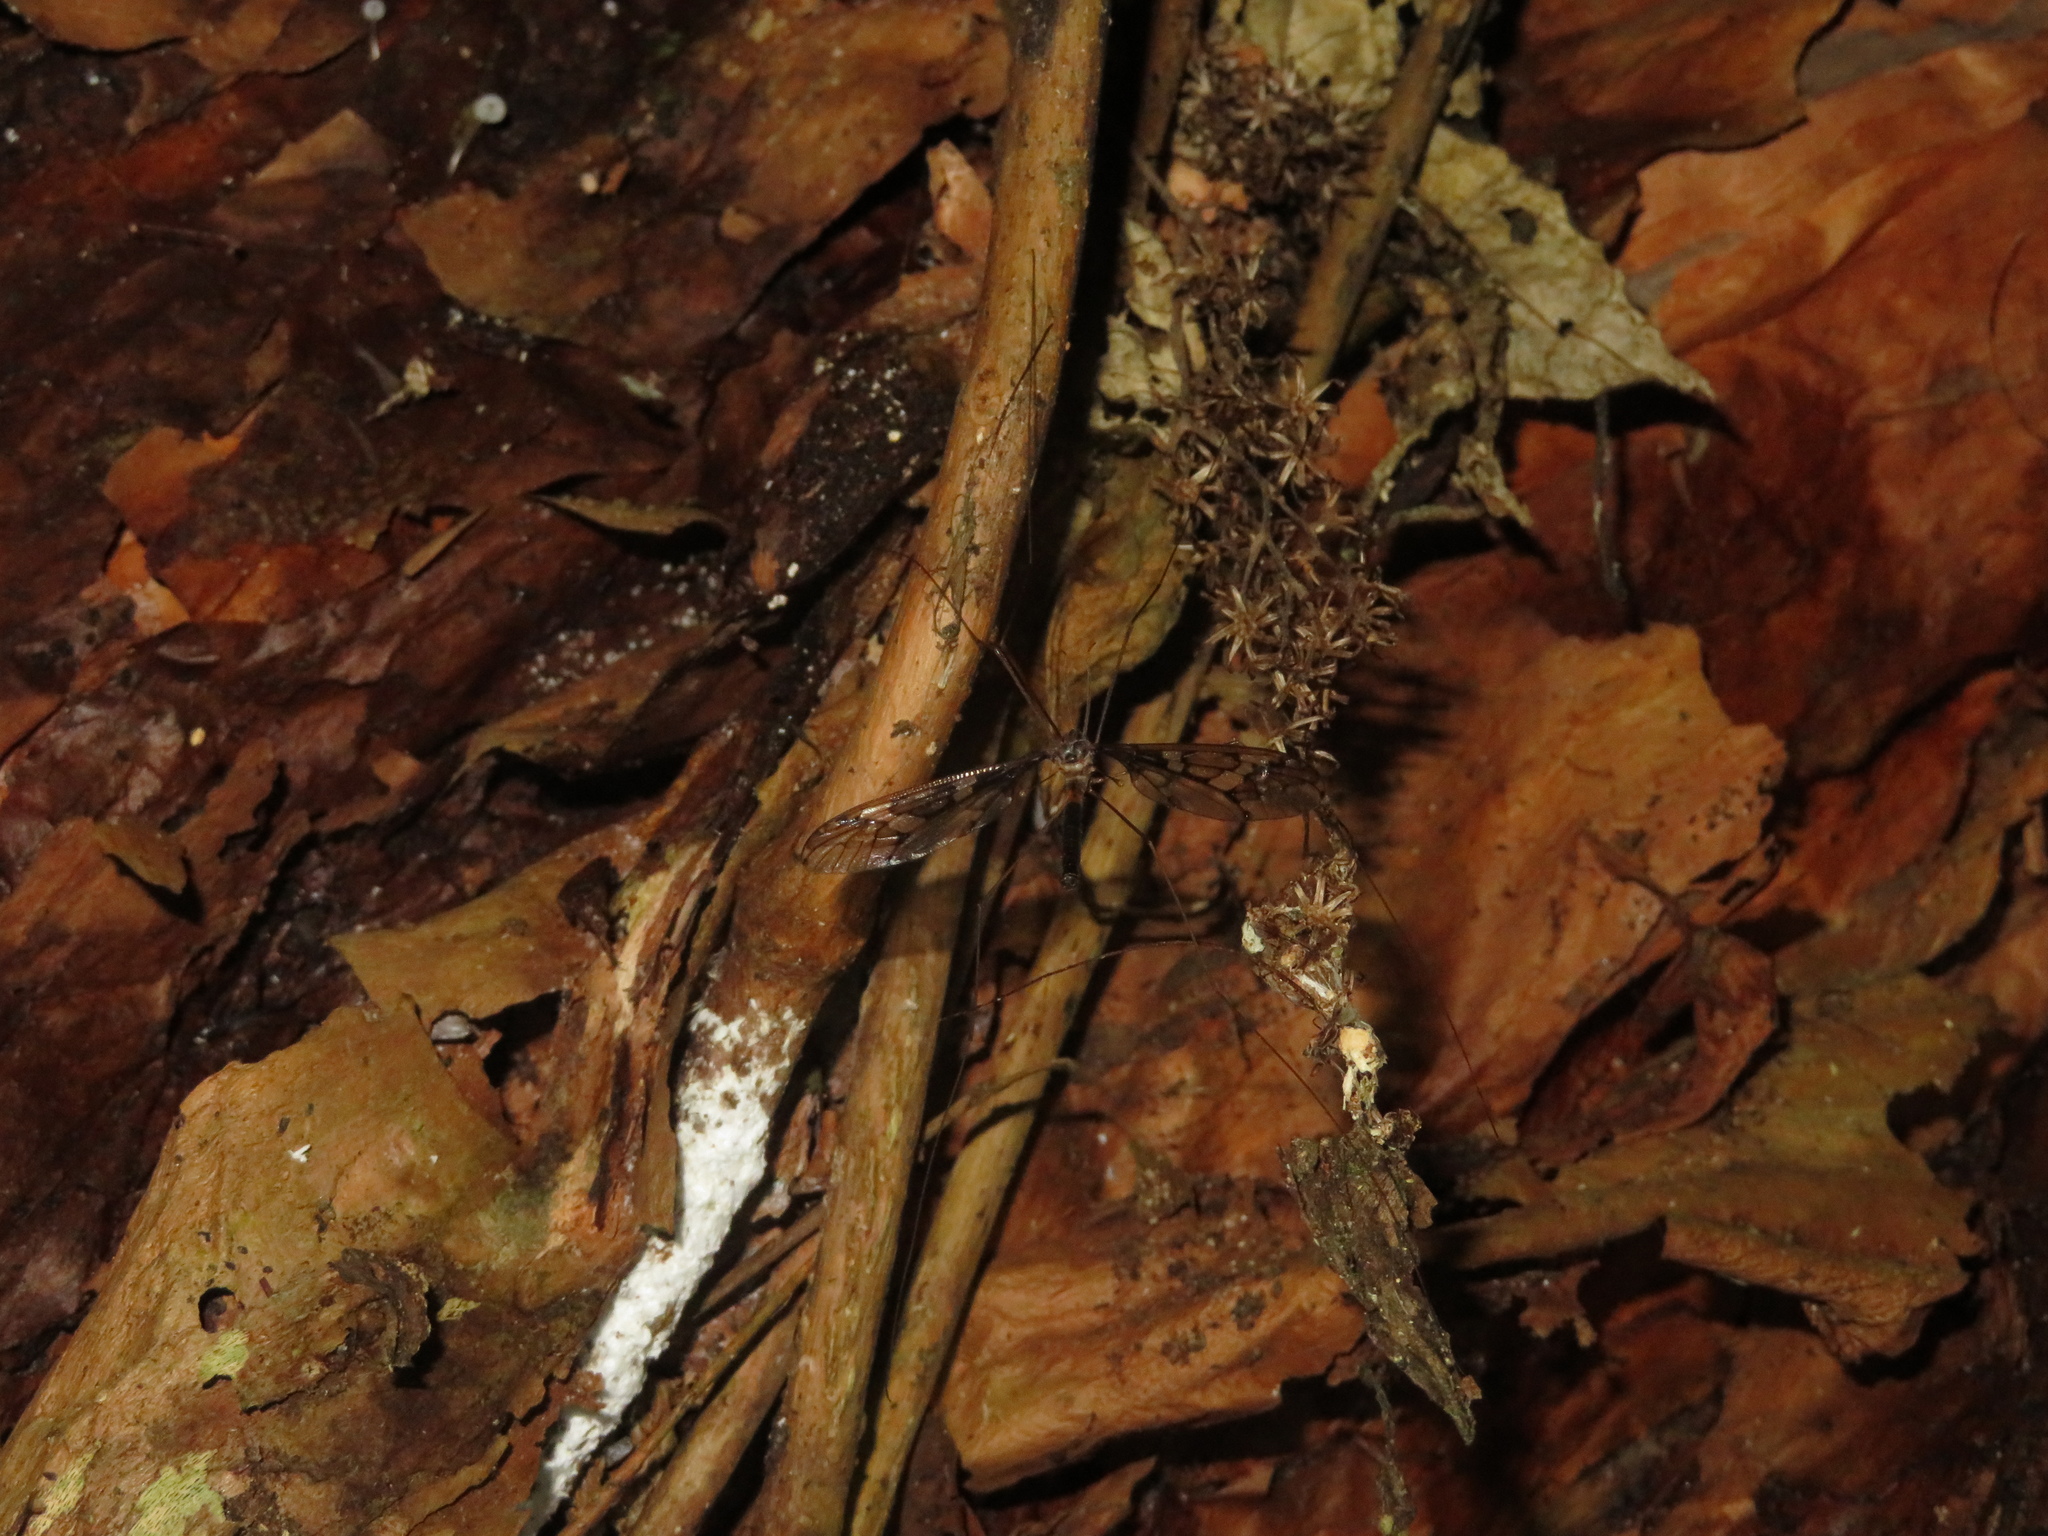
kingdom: Animalia
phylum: Arthropoda
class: Insecta
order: Diptera
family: Tipulidae
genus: Leptotarsus
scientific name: Leptotarsus binotatus
